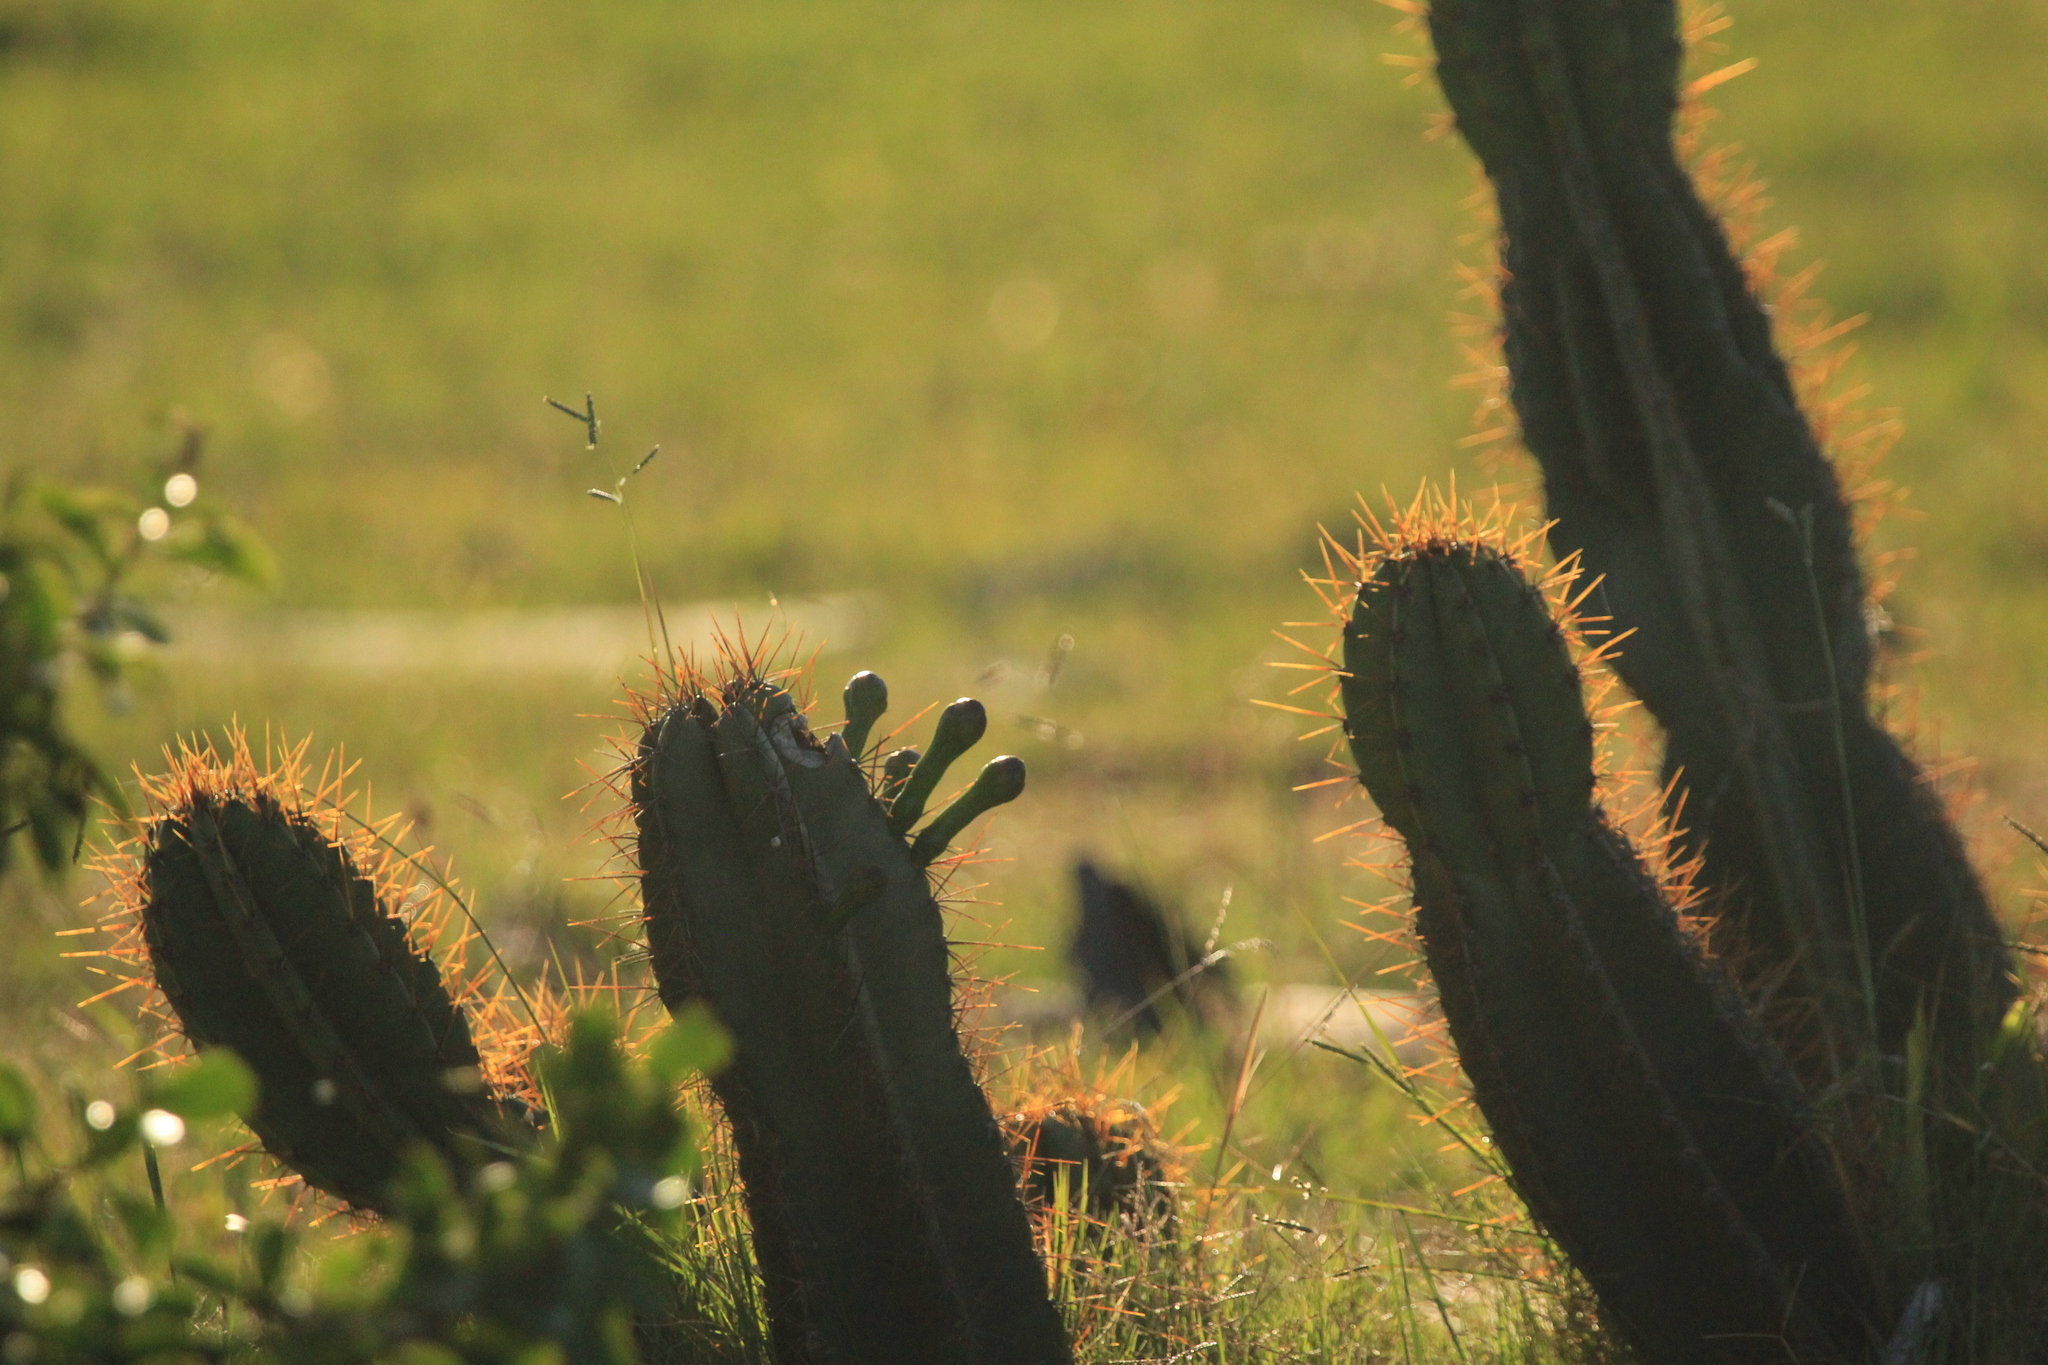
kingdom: Plantae
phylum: Tracheophyta
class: Magnoliopsida
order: Caryophyllales
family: Cactaceae
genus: Cereus
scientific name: Cereus hildmannianus
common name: Hedge cactus
